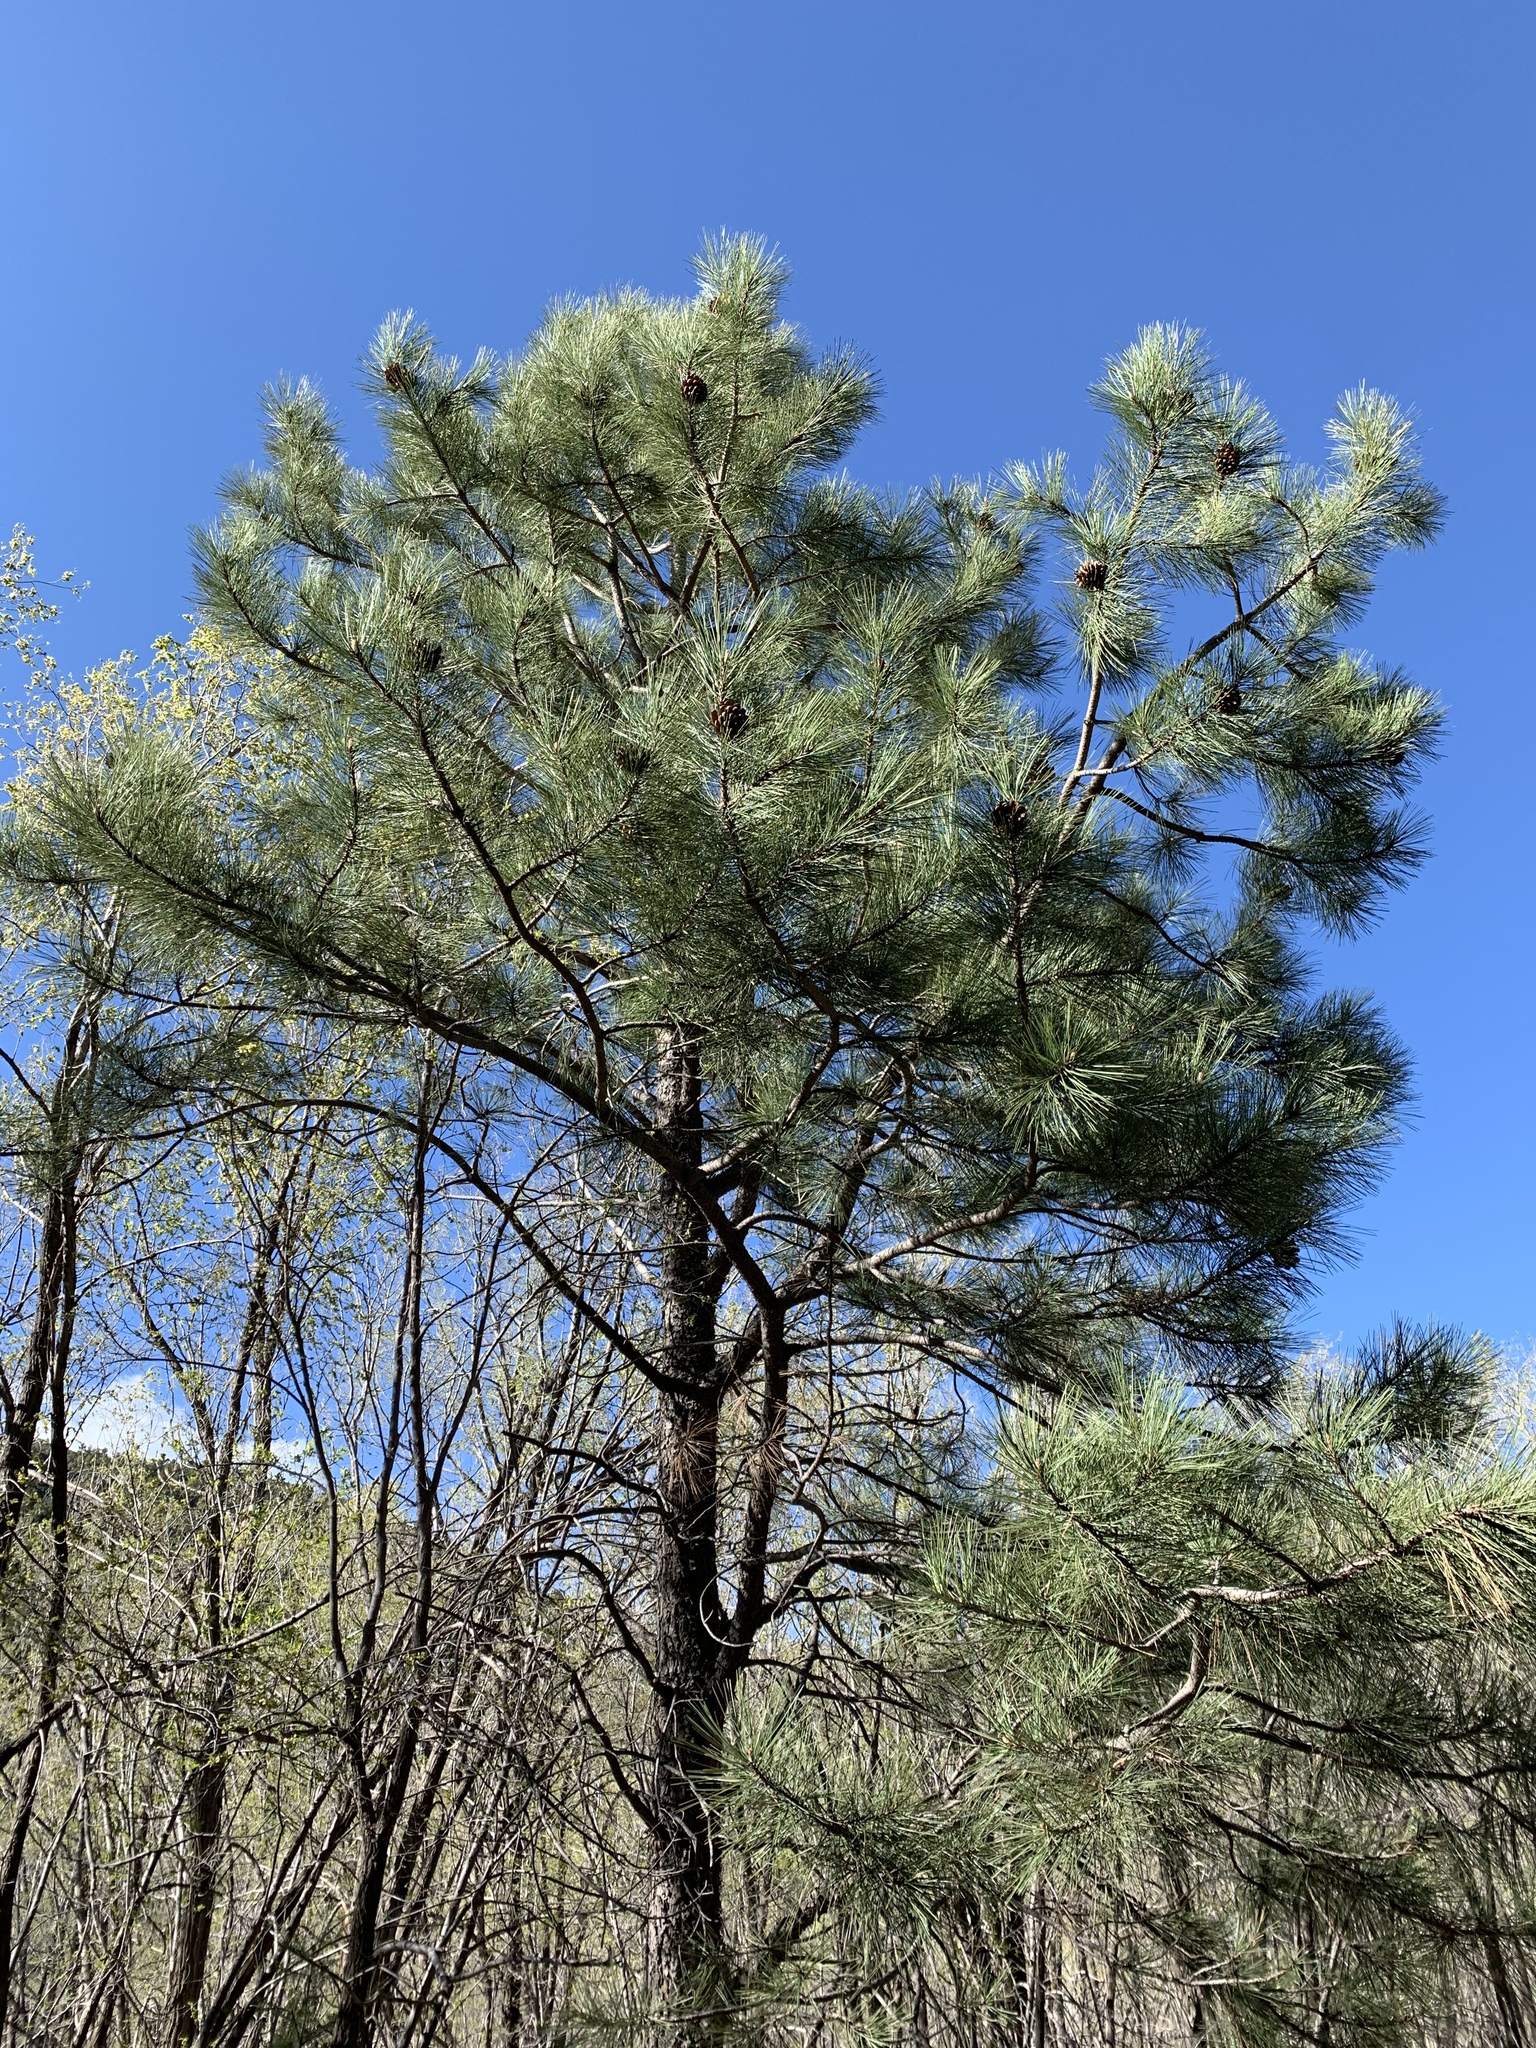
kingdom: Plantae
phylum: Tracheophyta
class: Pinopsida
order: Pinales
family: Pinaceae
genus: Pinus
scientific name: Pinus ponderosa
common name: Western yellow-pine
